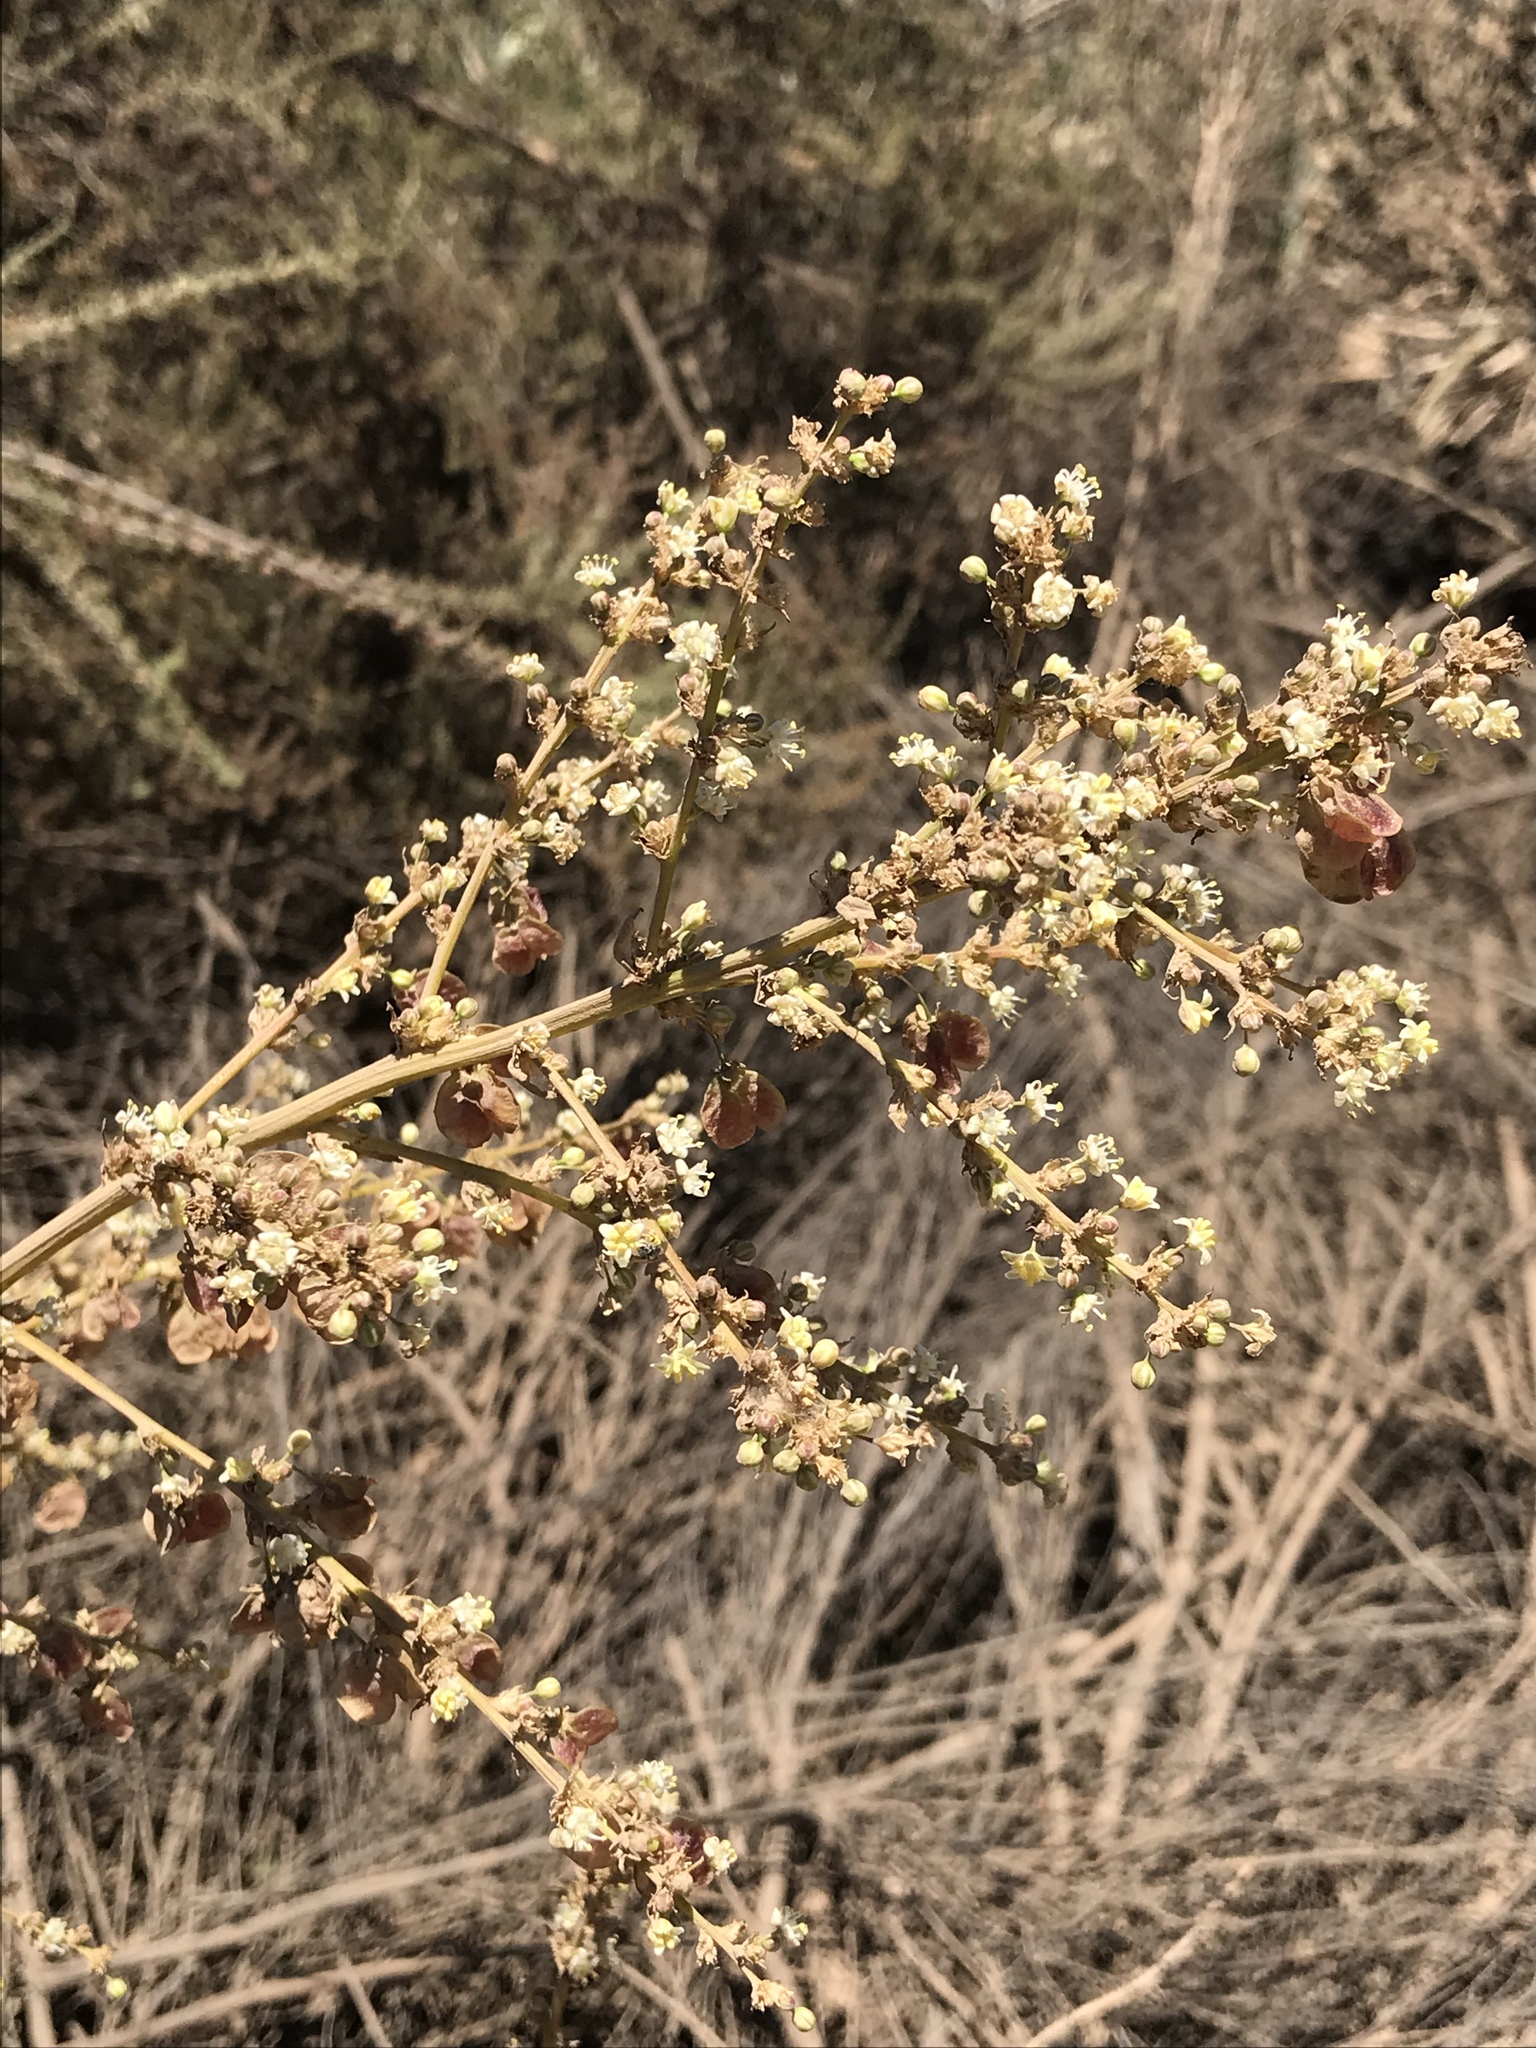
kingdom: Plantae
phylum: Tracheophyta
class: Liliopsida
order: Asparagales
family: Asparagaceae
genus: Nolina
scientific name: Nolina interrata
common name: Dehesa bear-grass
